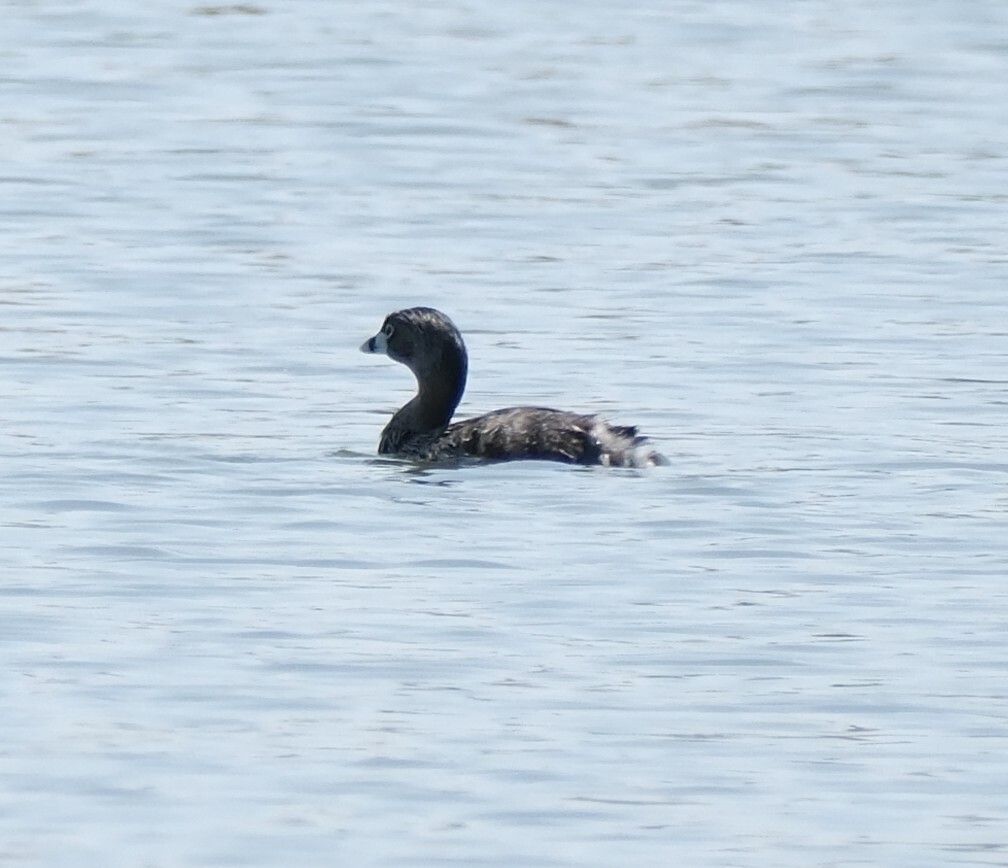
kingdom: Animalia
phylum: Chordata
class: Aves
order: Podicipediformes
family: Podicipedidae
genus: Podilymbus
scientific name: Podilymbus podiceps
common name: Pied-billed grebe
